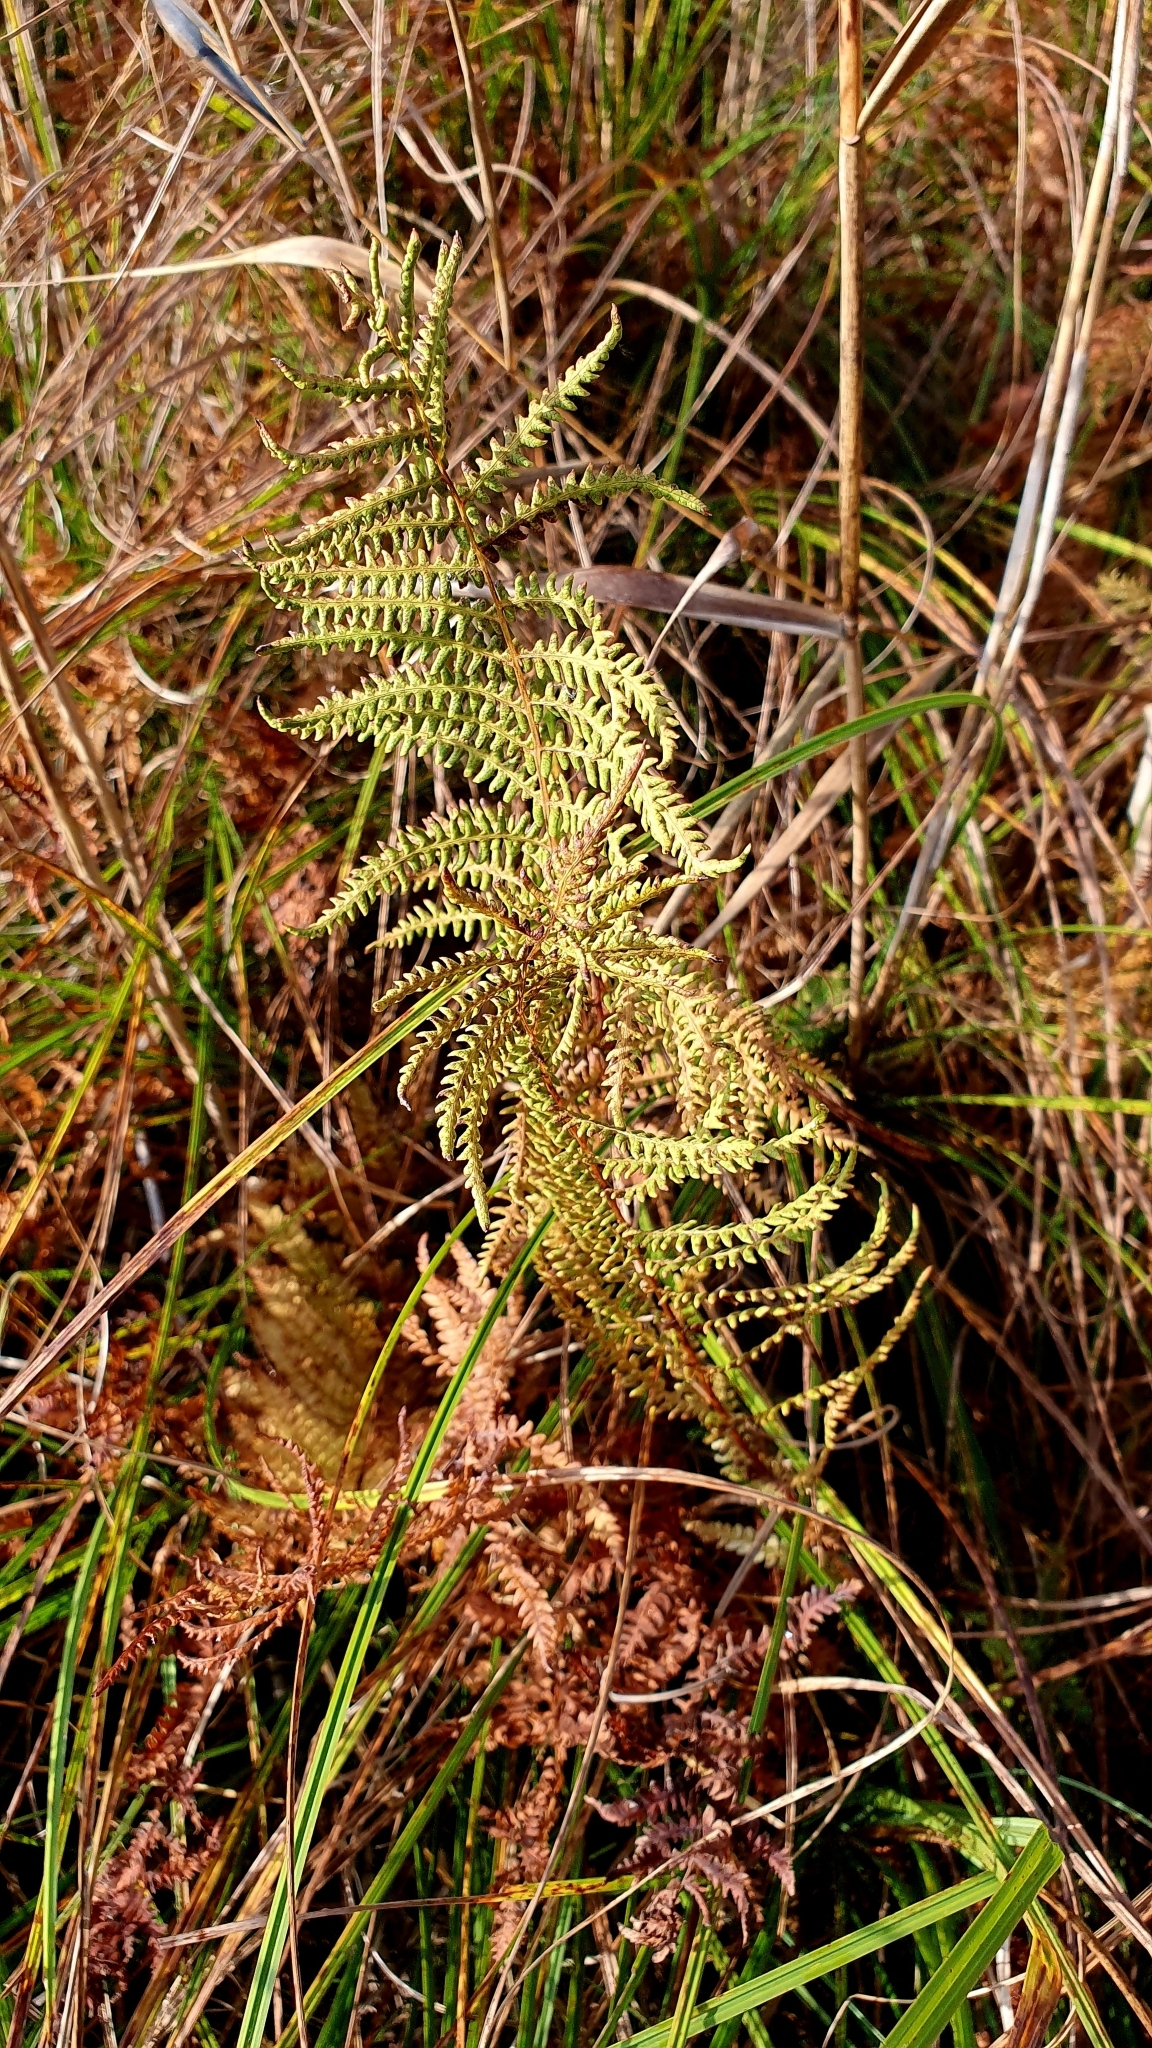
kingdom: Plantae
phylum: Tracheophyta
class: Polypodiopsida
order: Polypodiales
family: Thelypteridaceae
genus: Thelypteris
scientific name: Thelypteris palustris
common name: Marsh fern
